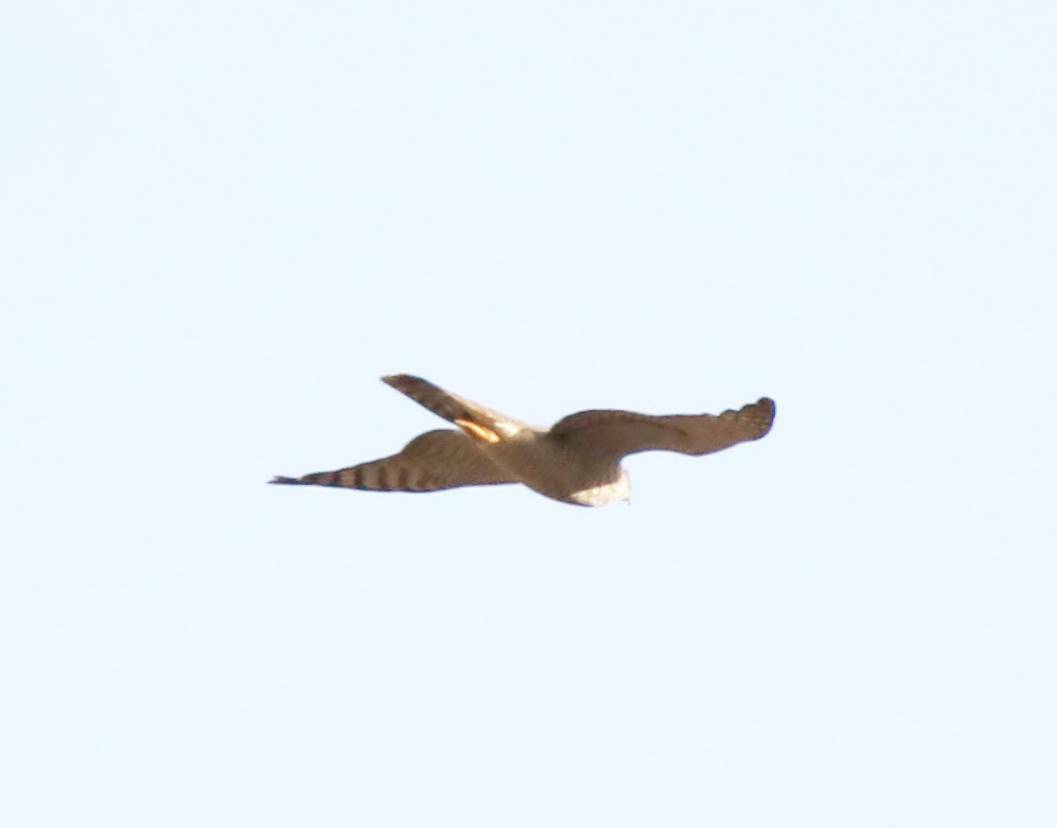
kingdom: Animalia
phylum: Chordata
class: Aves
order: Accipitriformes
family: Accipitridae
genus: Accipiter
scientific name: Accipiter nisus
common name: Eurasian sparrowhawk
